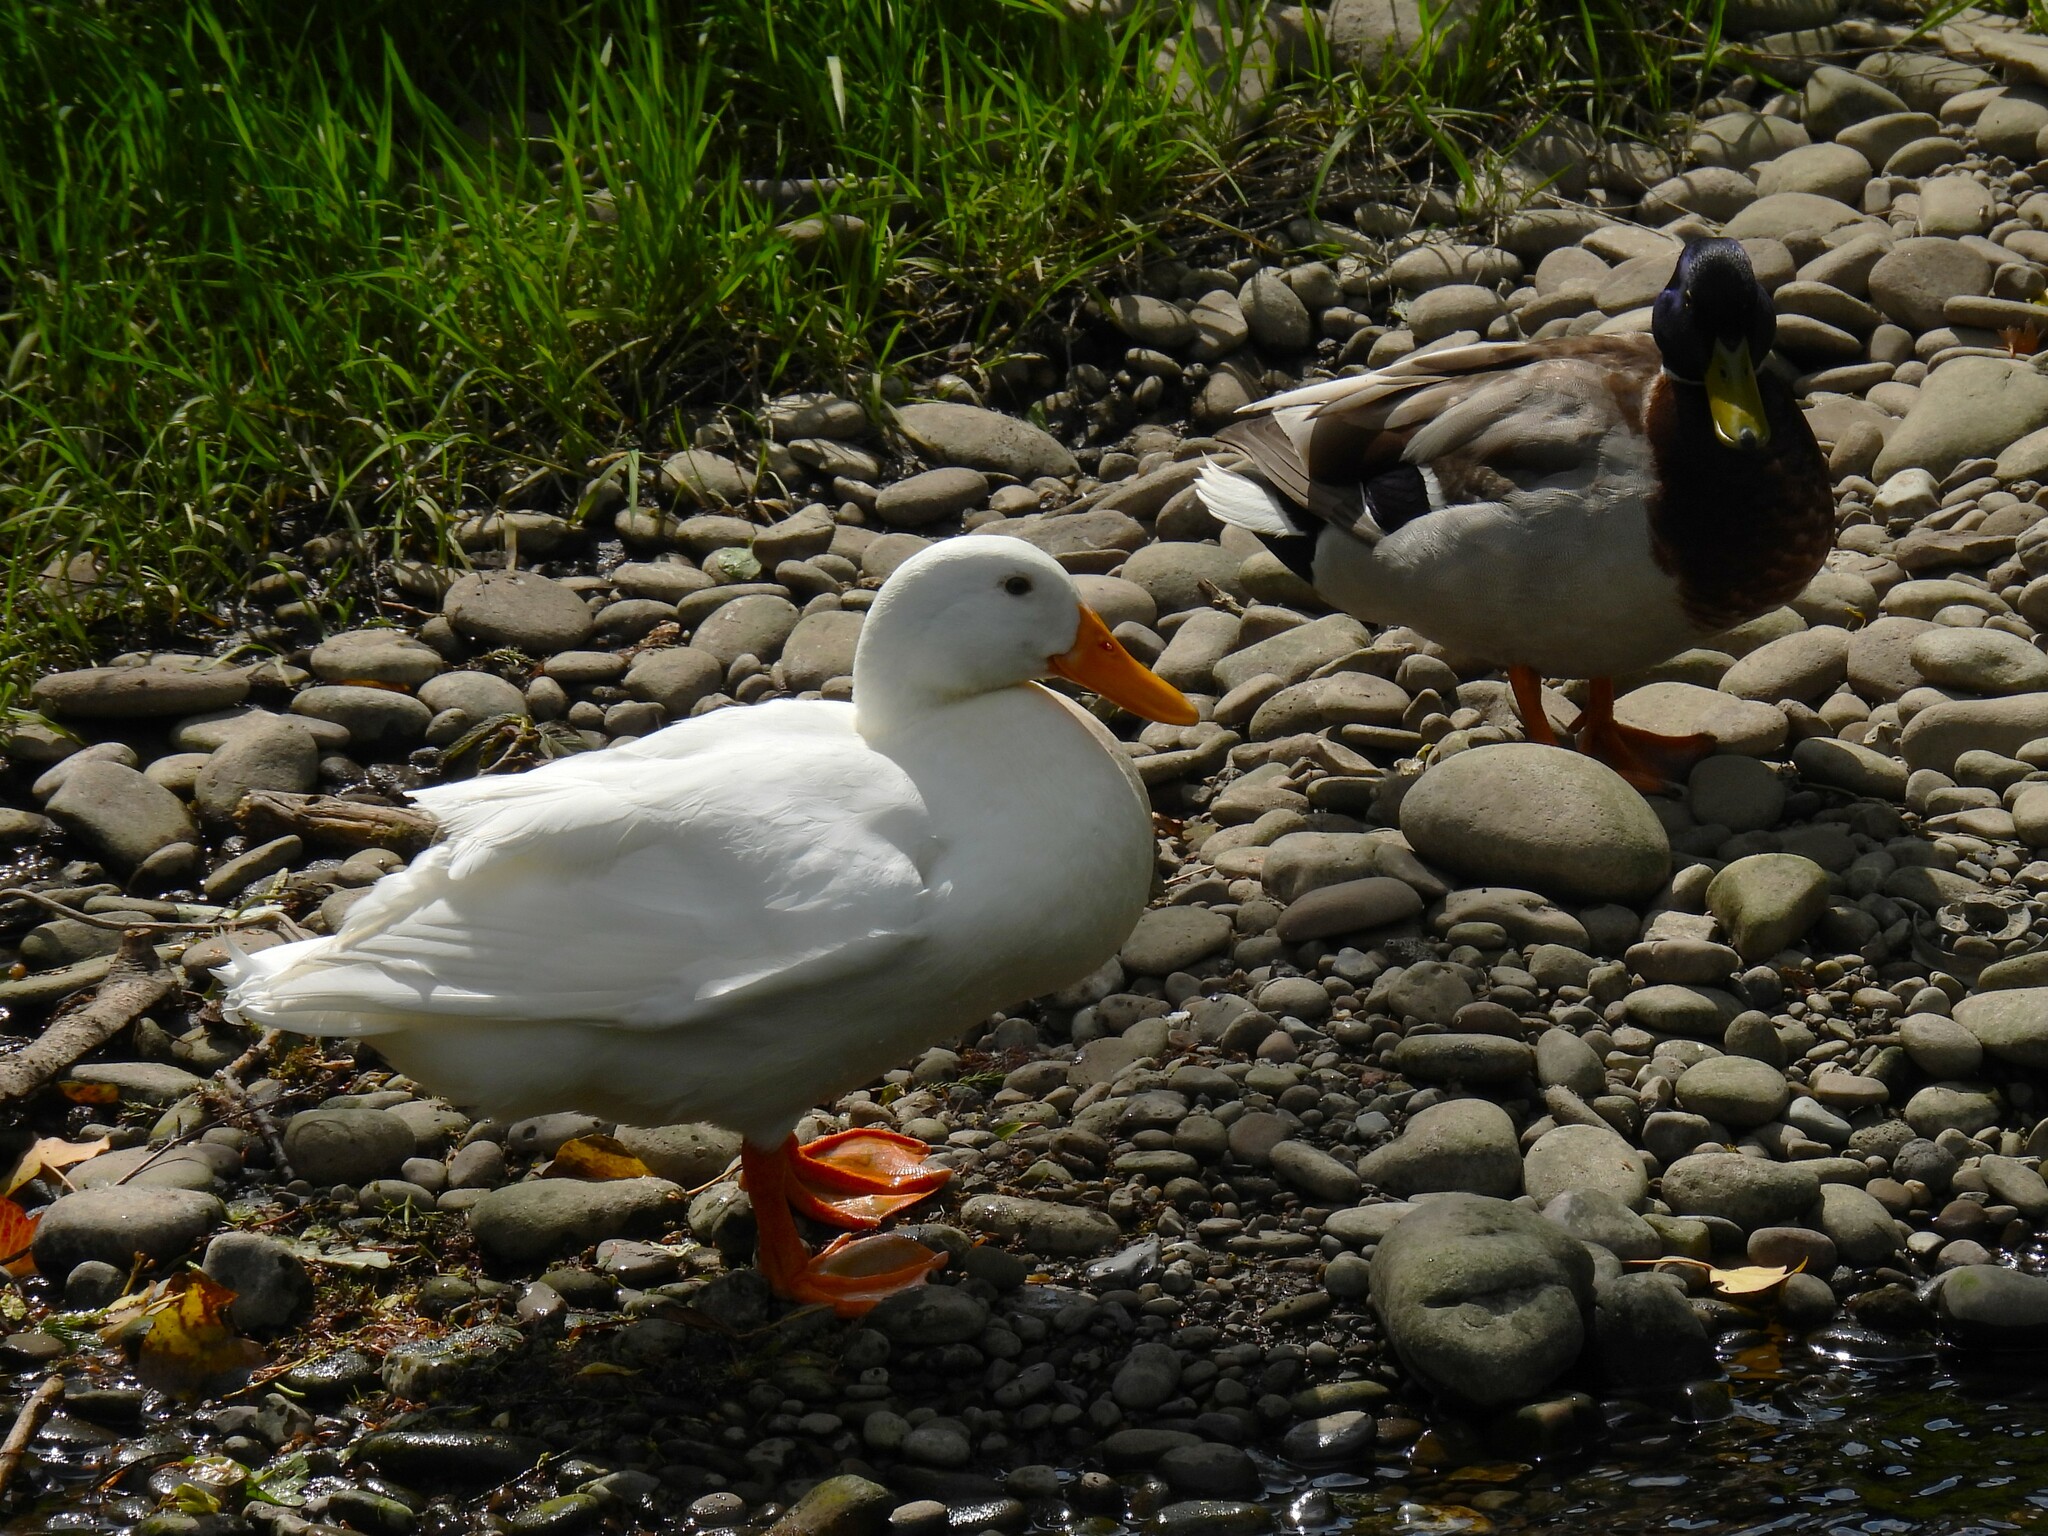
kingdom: Animalia
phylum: Chordata
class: Aves
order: Anseriformes
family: Anatidae
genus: Anas
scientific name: Anas platyrhynchos
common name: Mallard
